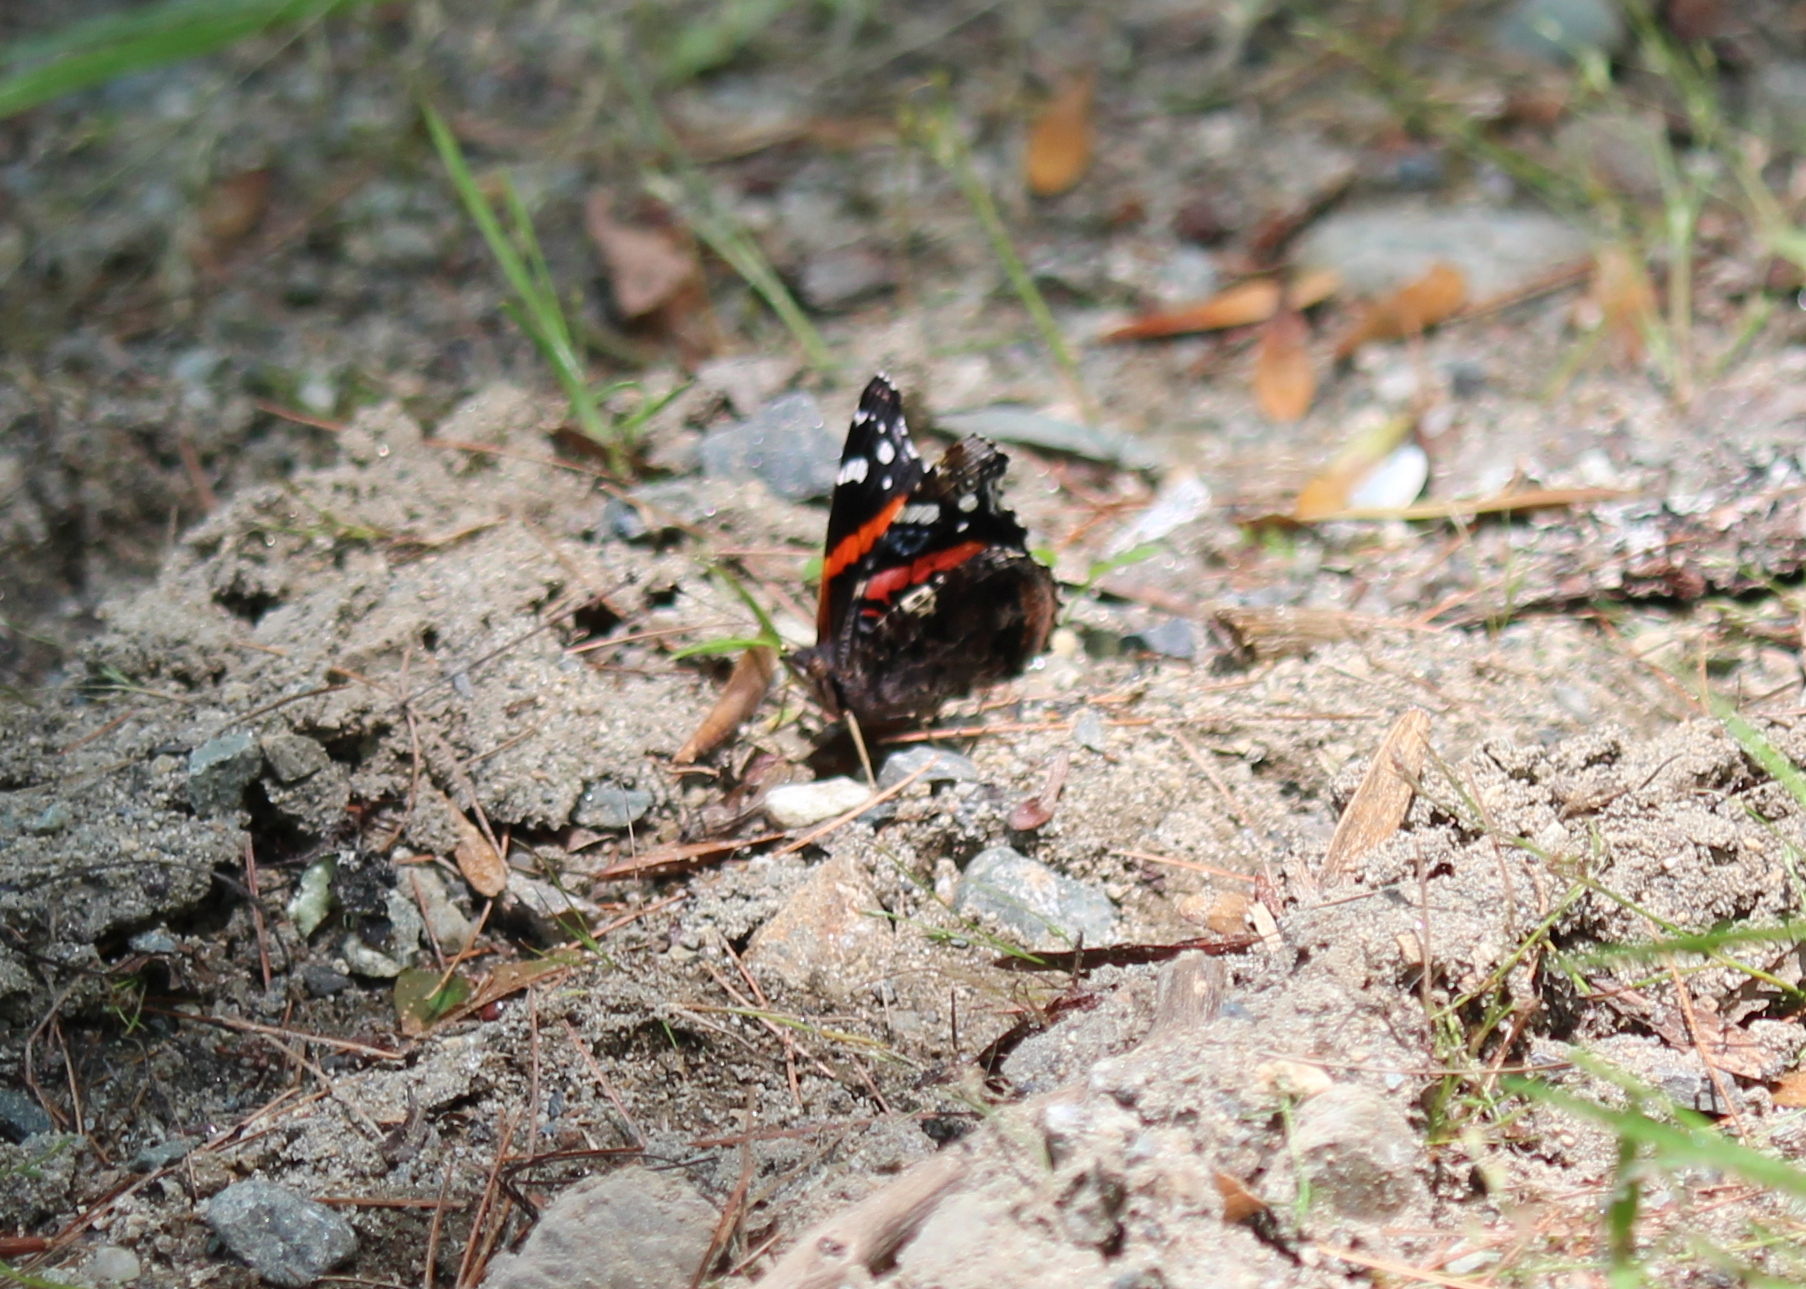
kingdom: Animalia
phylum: Arthropoda
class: Insecta
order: Lepidoptera
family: Nymphalidae
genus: Vanessa
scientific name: Vanessa atalanta
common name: Red admiral
